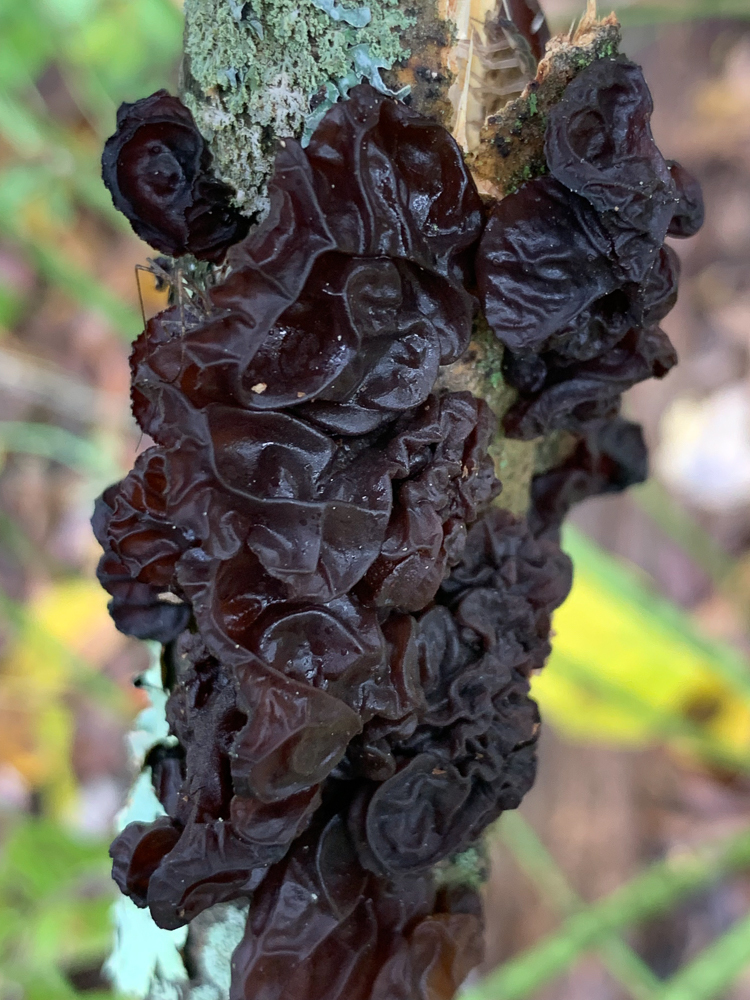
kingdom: Fungi
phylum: Basidiomycota
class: Agaricomycetes
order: Auriculariales
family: Auriculariaceae
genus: Exidia
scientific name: Exidia
